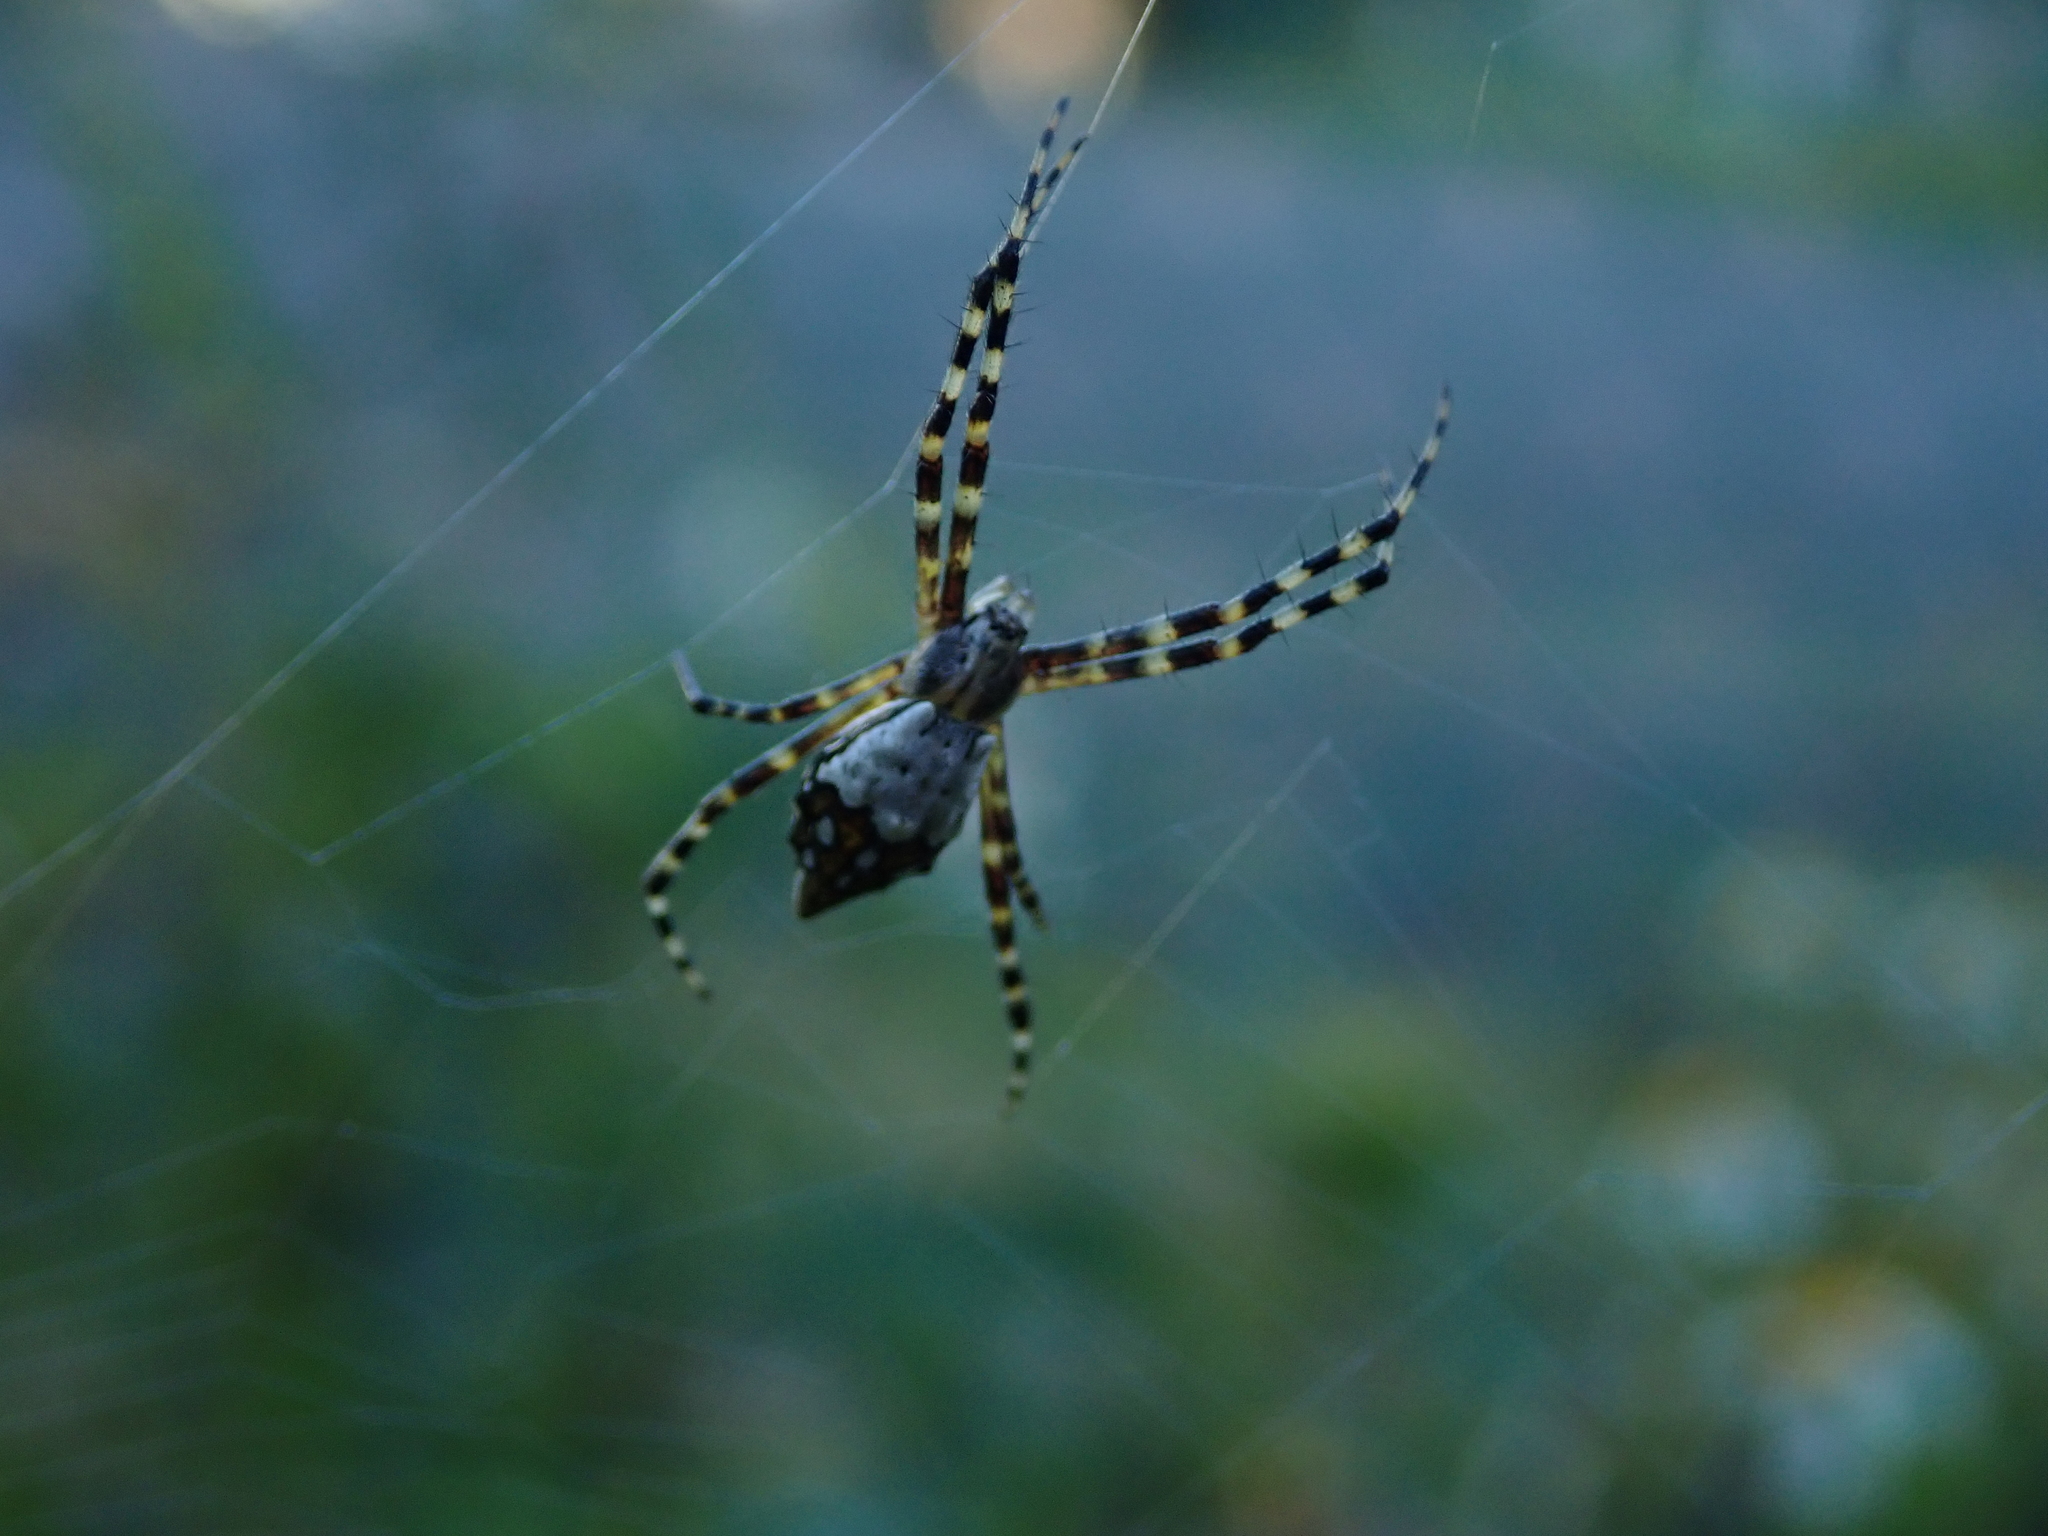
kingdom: Animalia
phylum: Arthropoda
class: Arachnida
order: Araneae
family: Araneidae
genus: Argiope
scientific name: Argiope argentata
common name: Orb weavers
